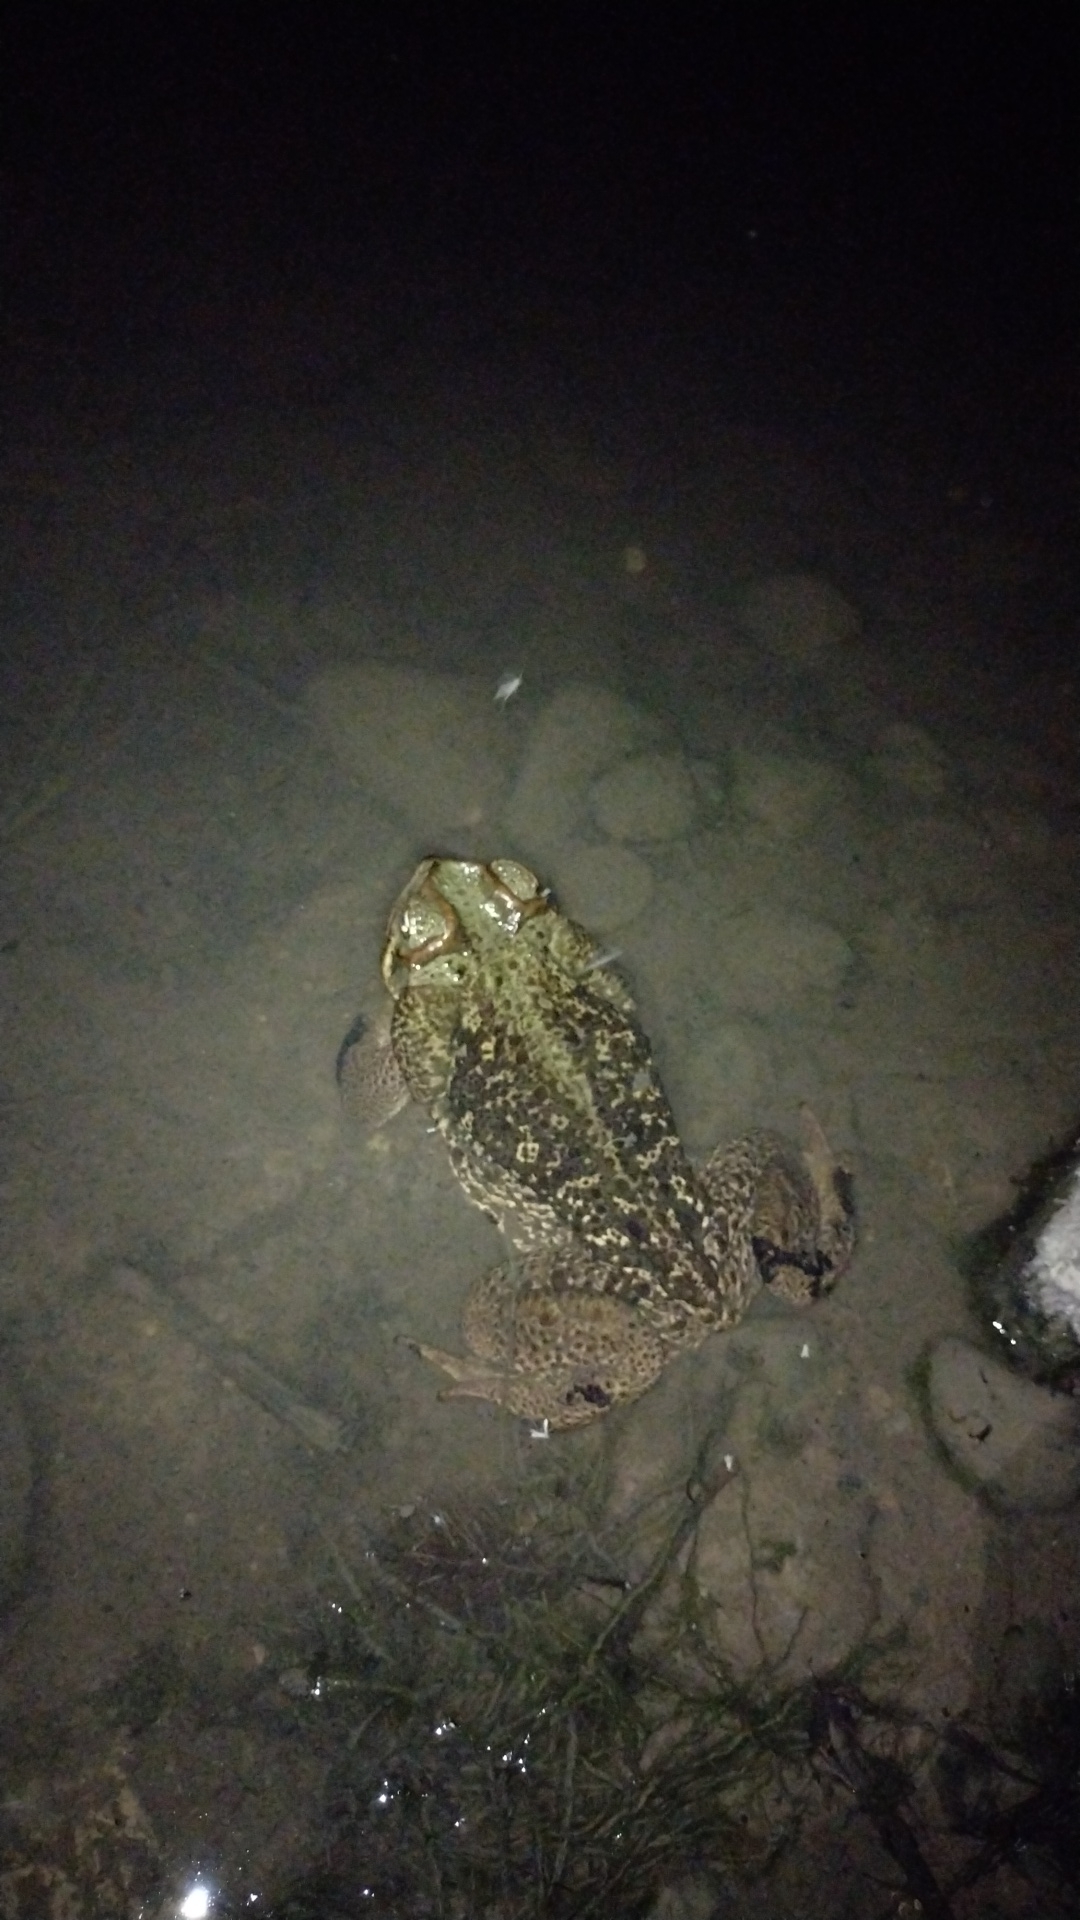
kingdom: Animalia
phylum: Chordata
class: Amphibia
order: Anura
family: Bufonidae
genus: Rhinella
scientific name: Rhinella diptycha
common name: Cope's toad
